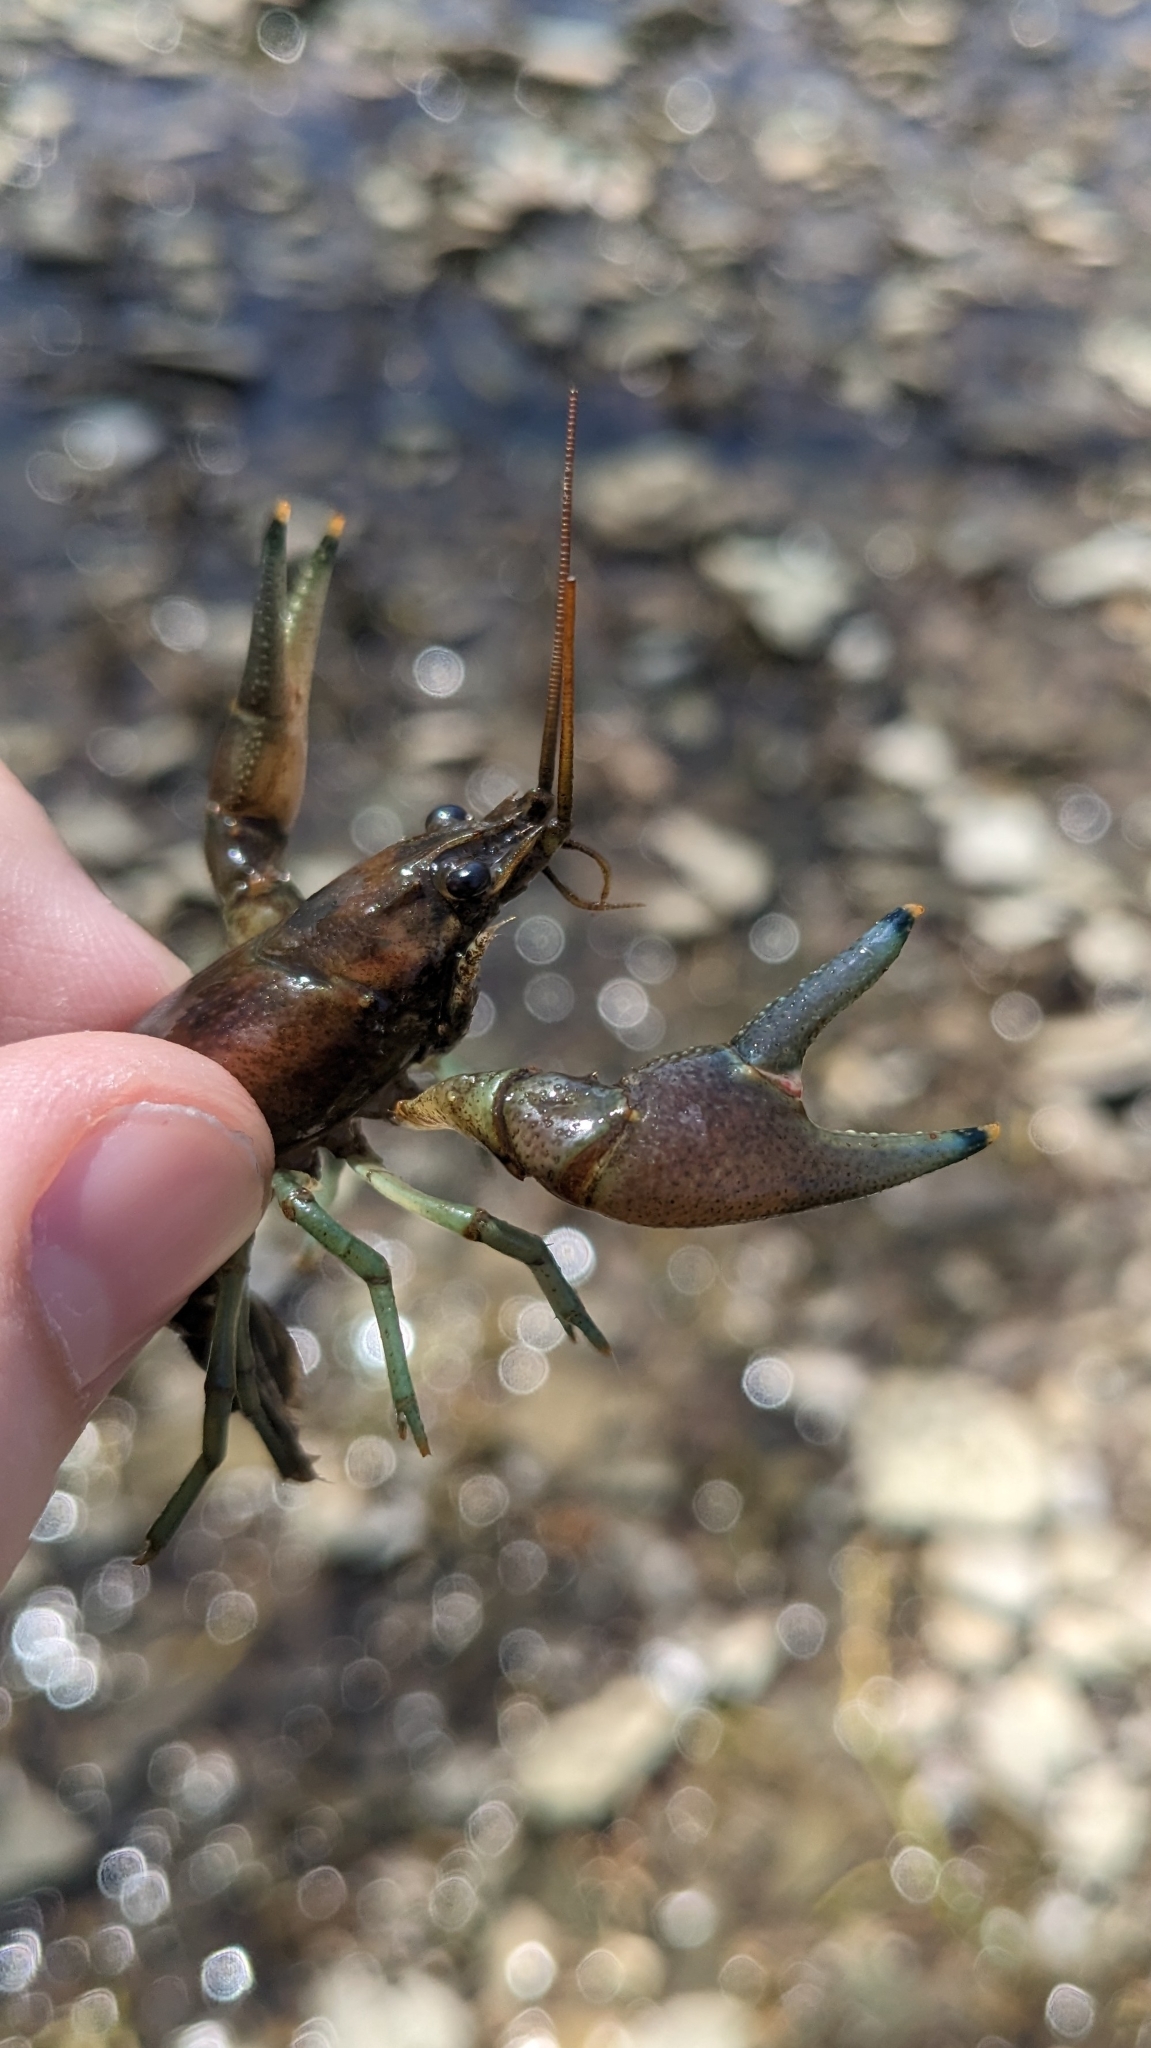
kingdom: Animalia
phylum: Arthropoda
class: Malacostraca
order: Decapoda
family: Cambaridae
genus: Faxonius
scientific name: Faxonius rusticus
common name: Rusty crayfish
